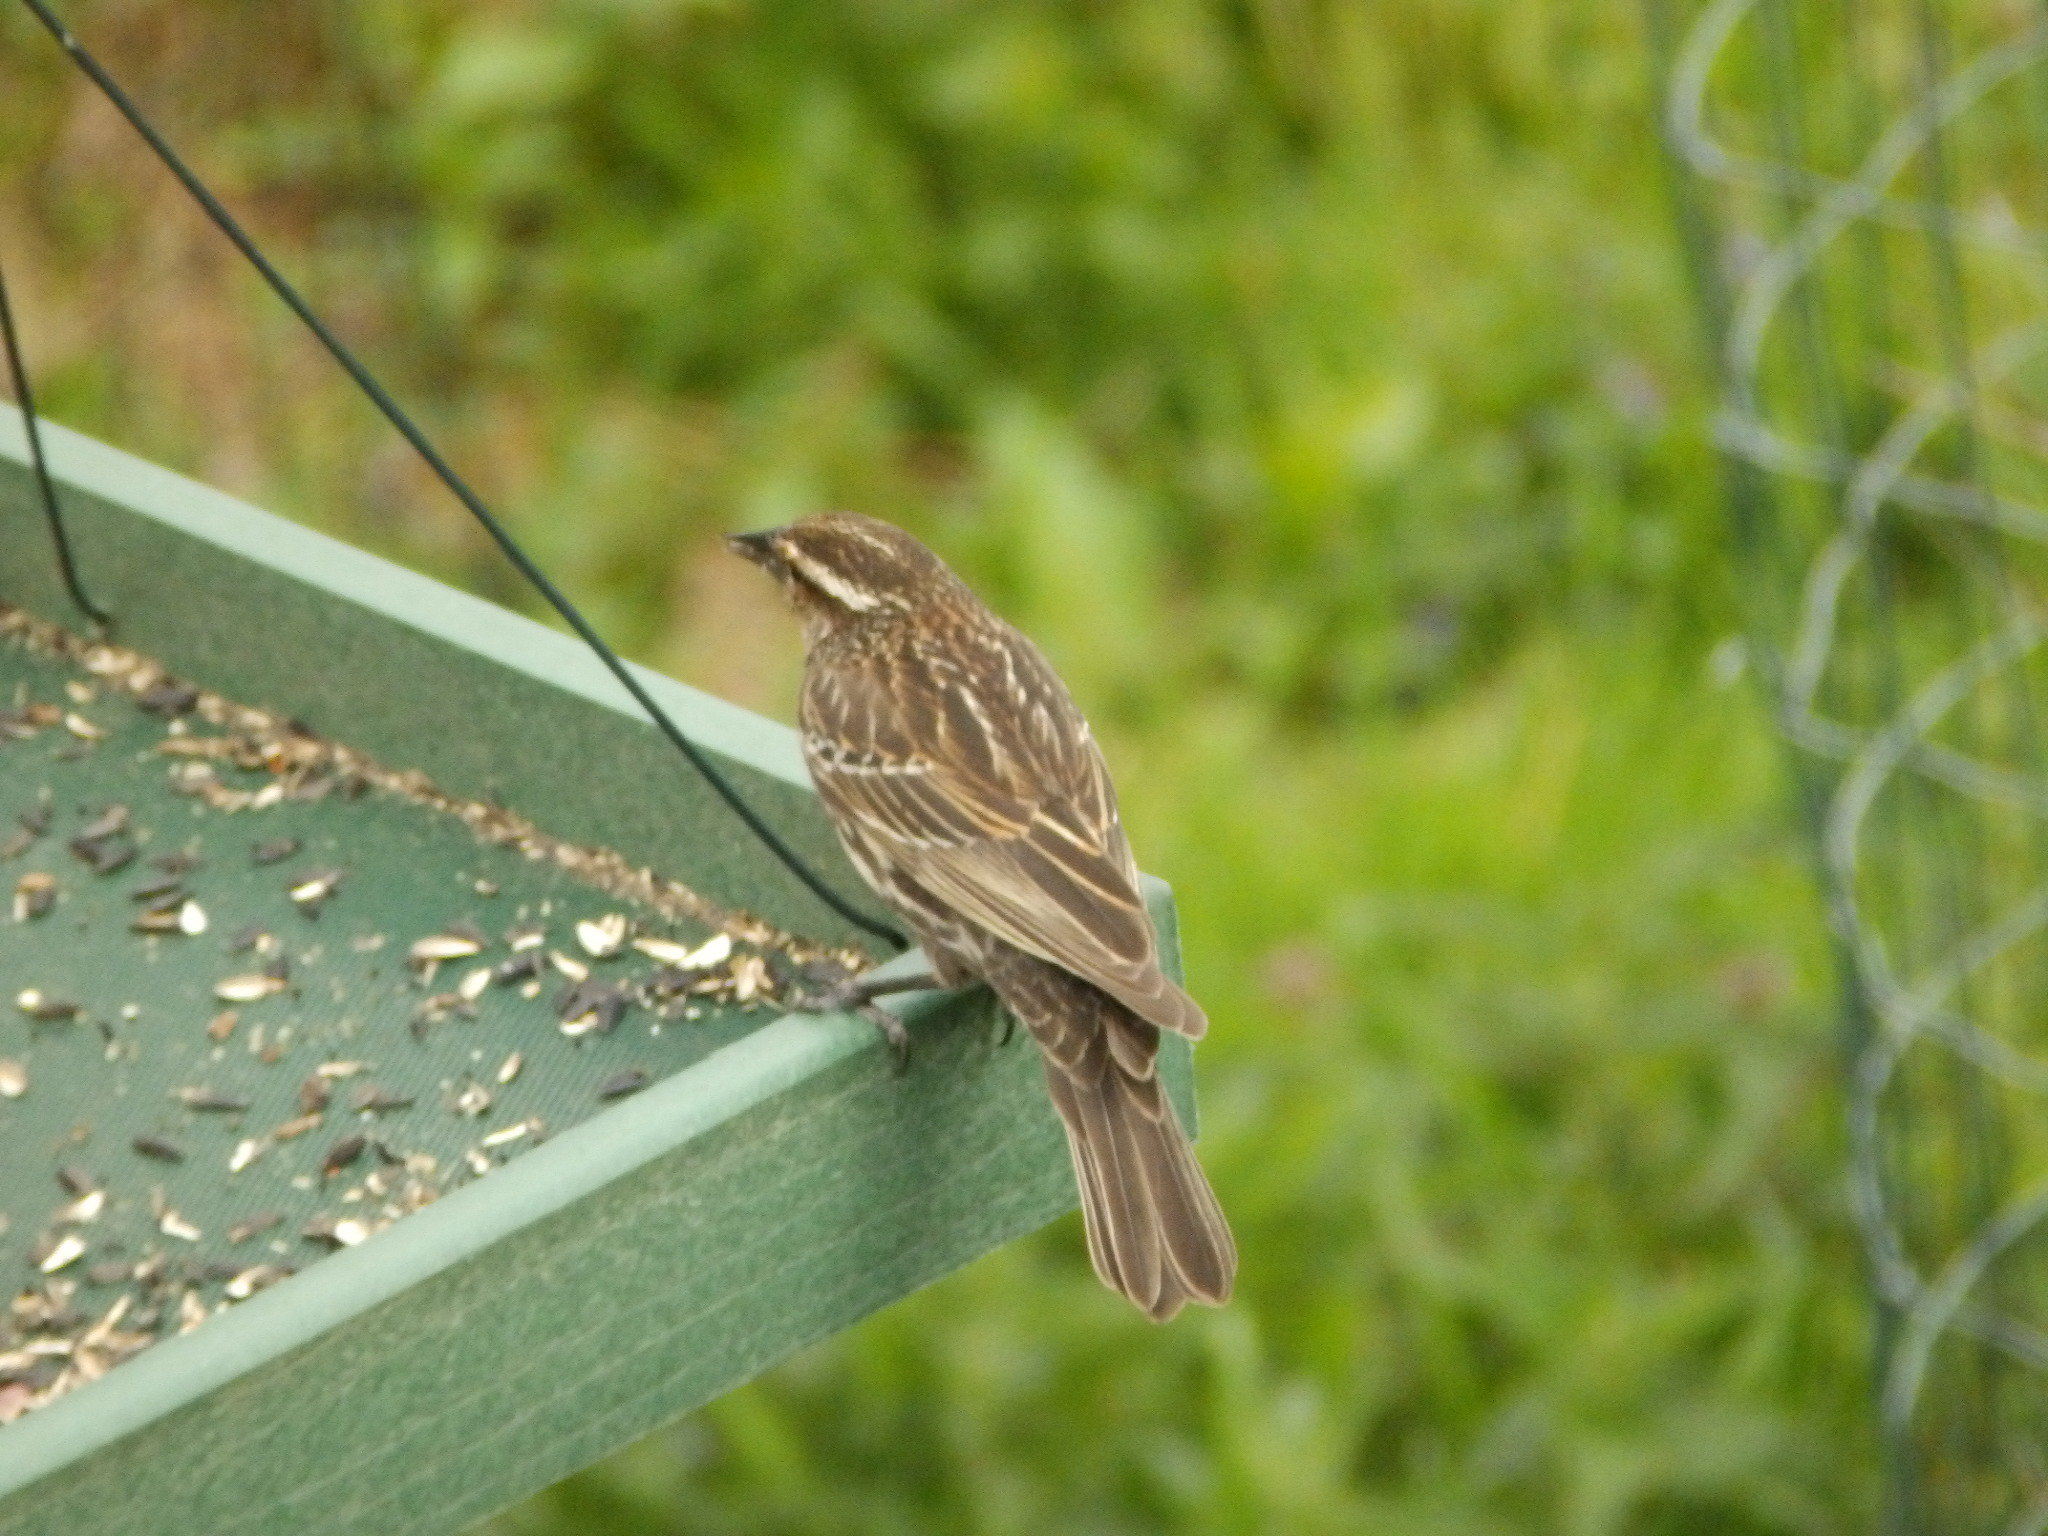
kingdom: Animalia
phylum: Chordata
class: Aves
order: Passeriformes
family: Icteridae
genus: Agelaius
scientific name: Agelaius phoeniceus
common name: Red-winged blackbird
